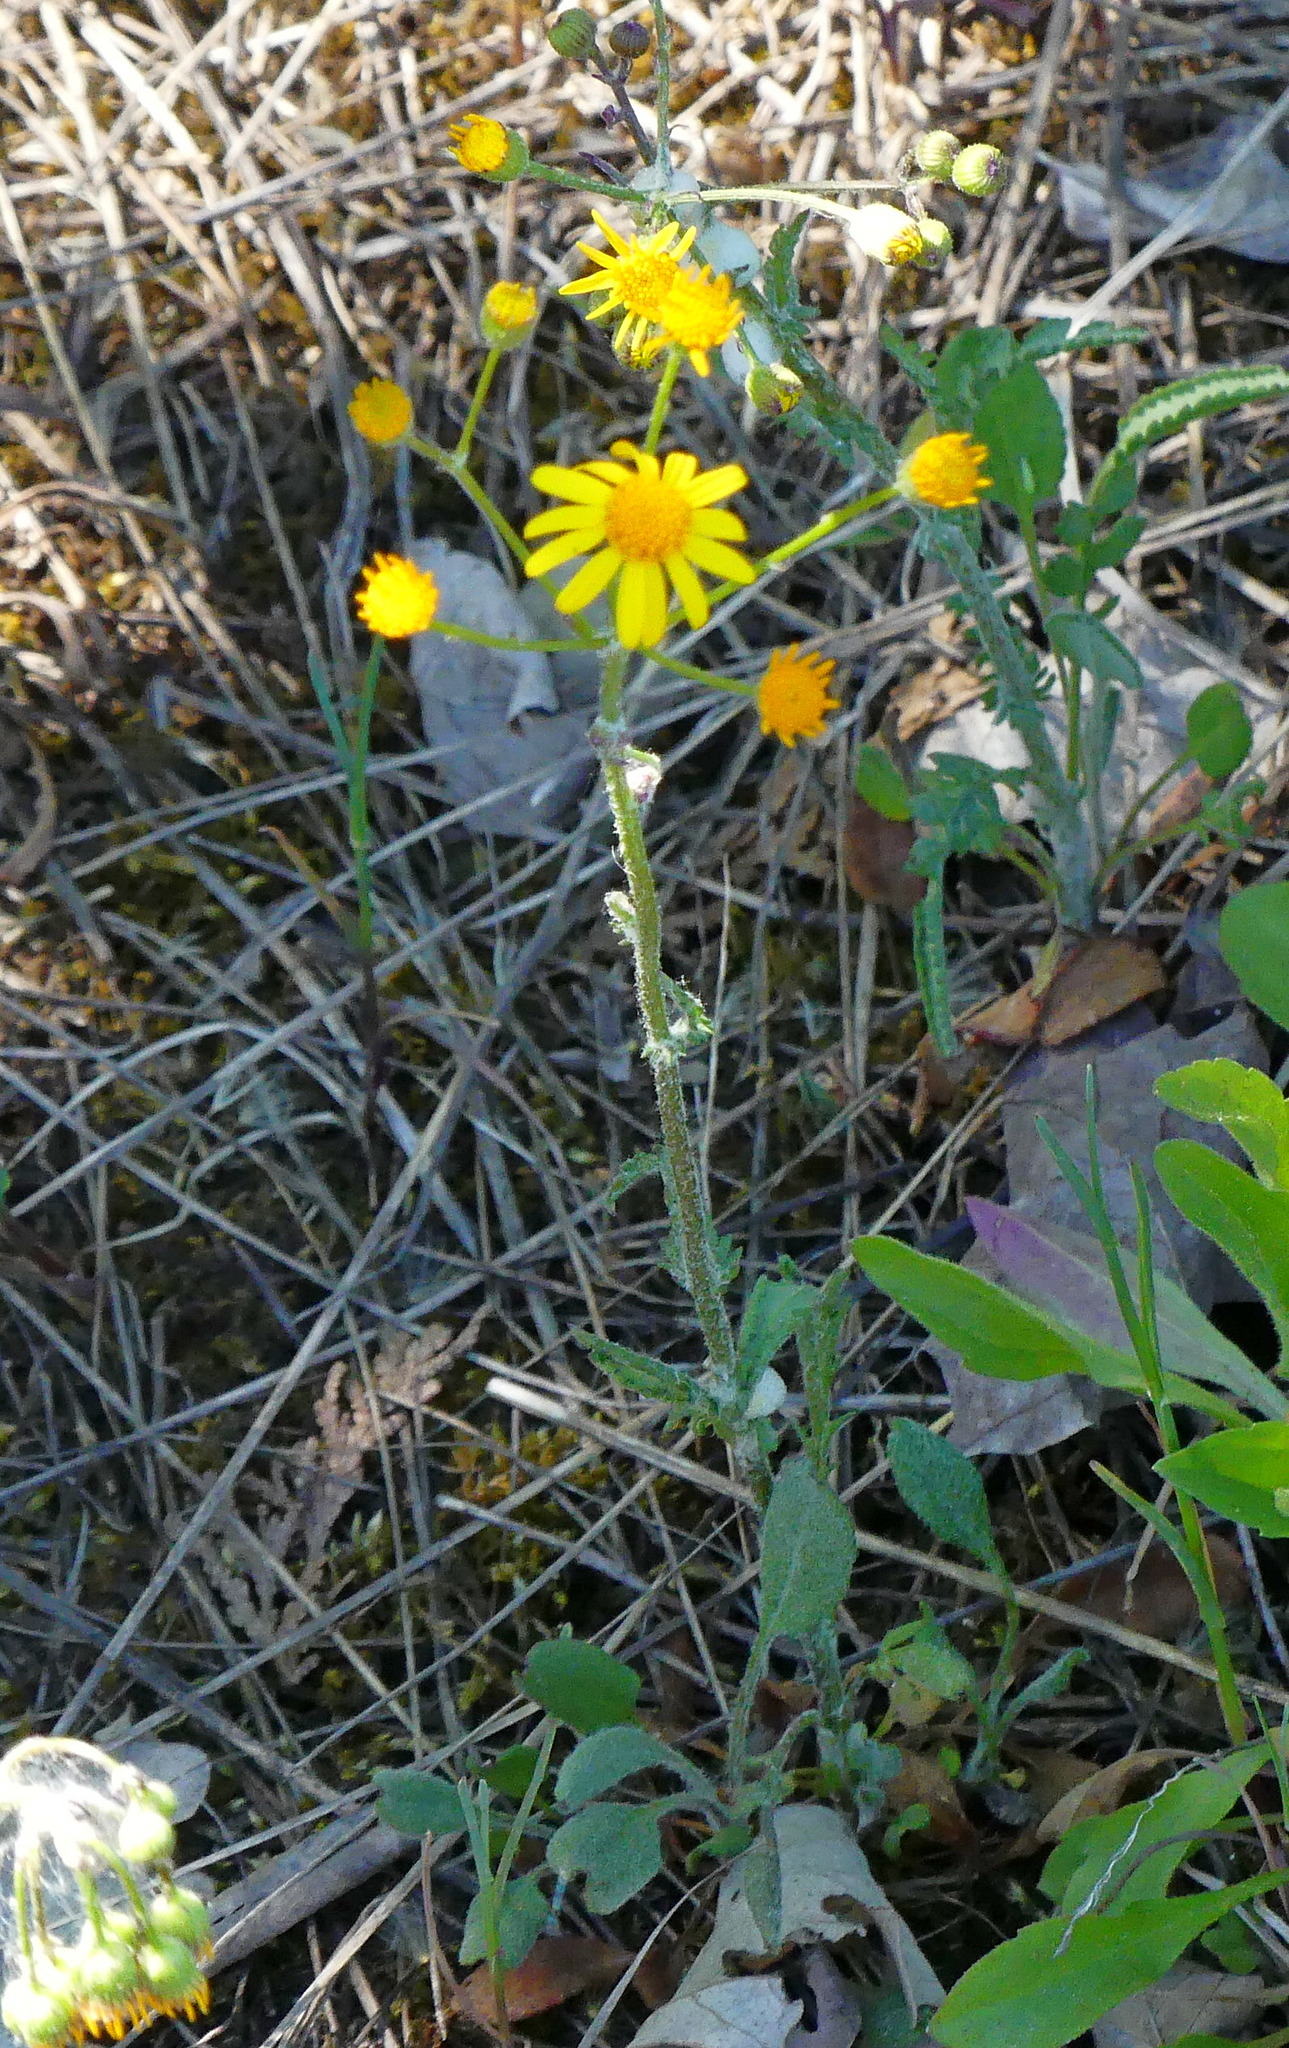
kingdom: Plantae
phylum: Tracheophyta
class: Magnoliopsida
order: Asterales
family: Asteraceae
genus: Packera
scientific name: Packera paupercula
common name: Balsam groundsel
